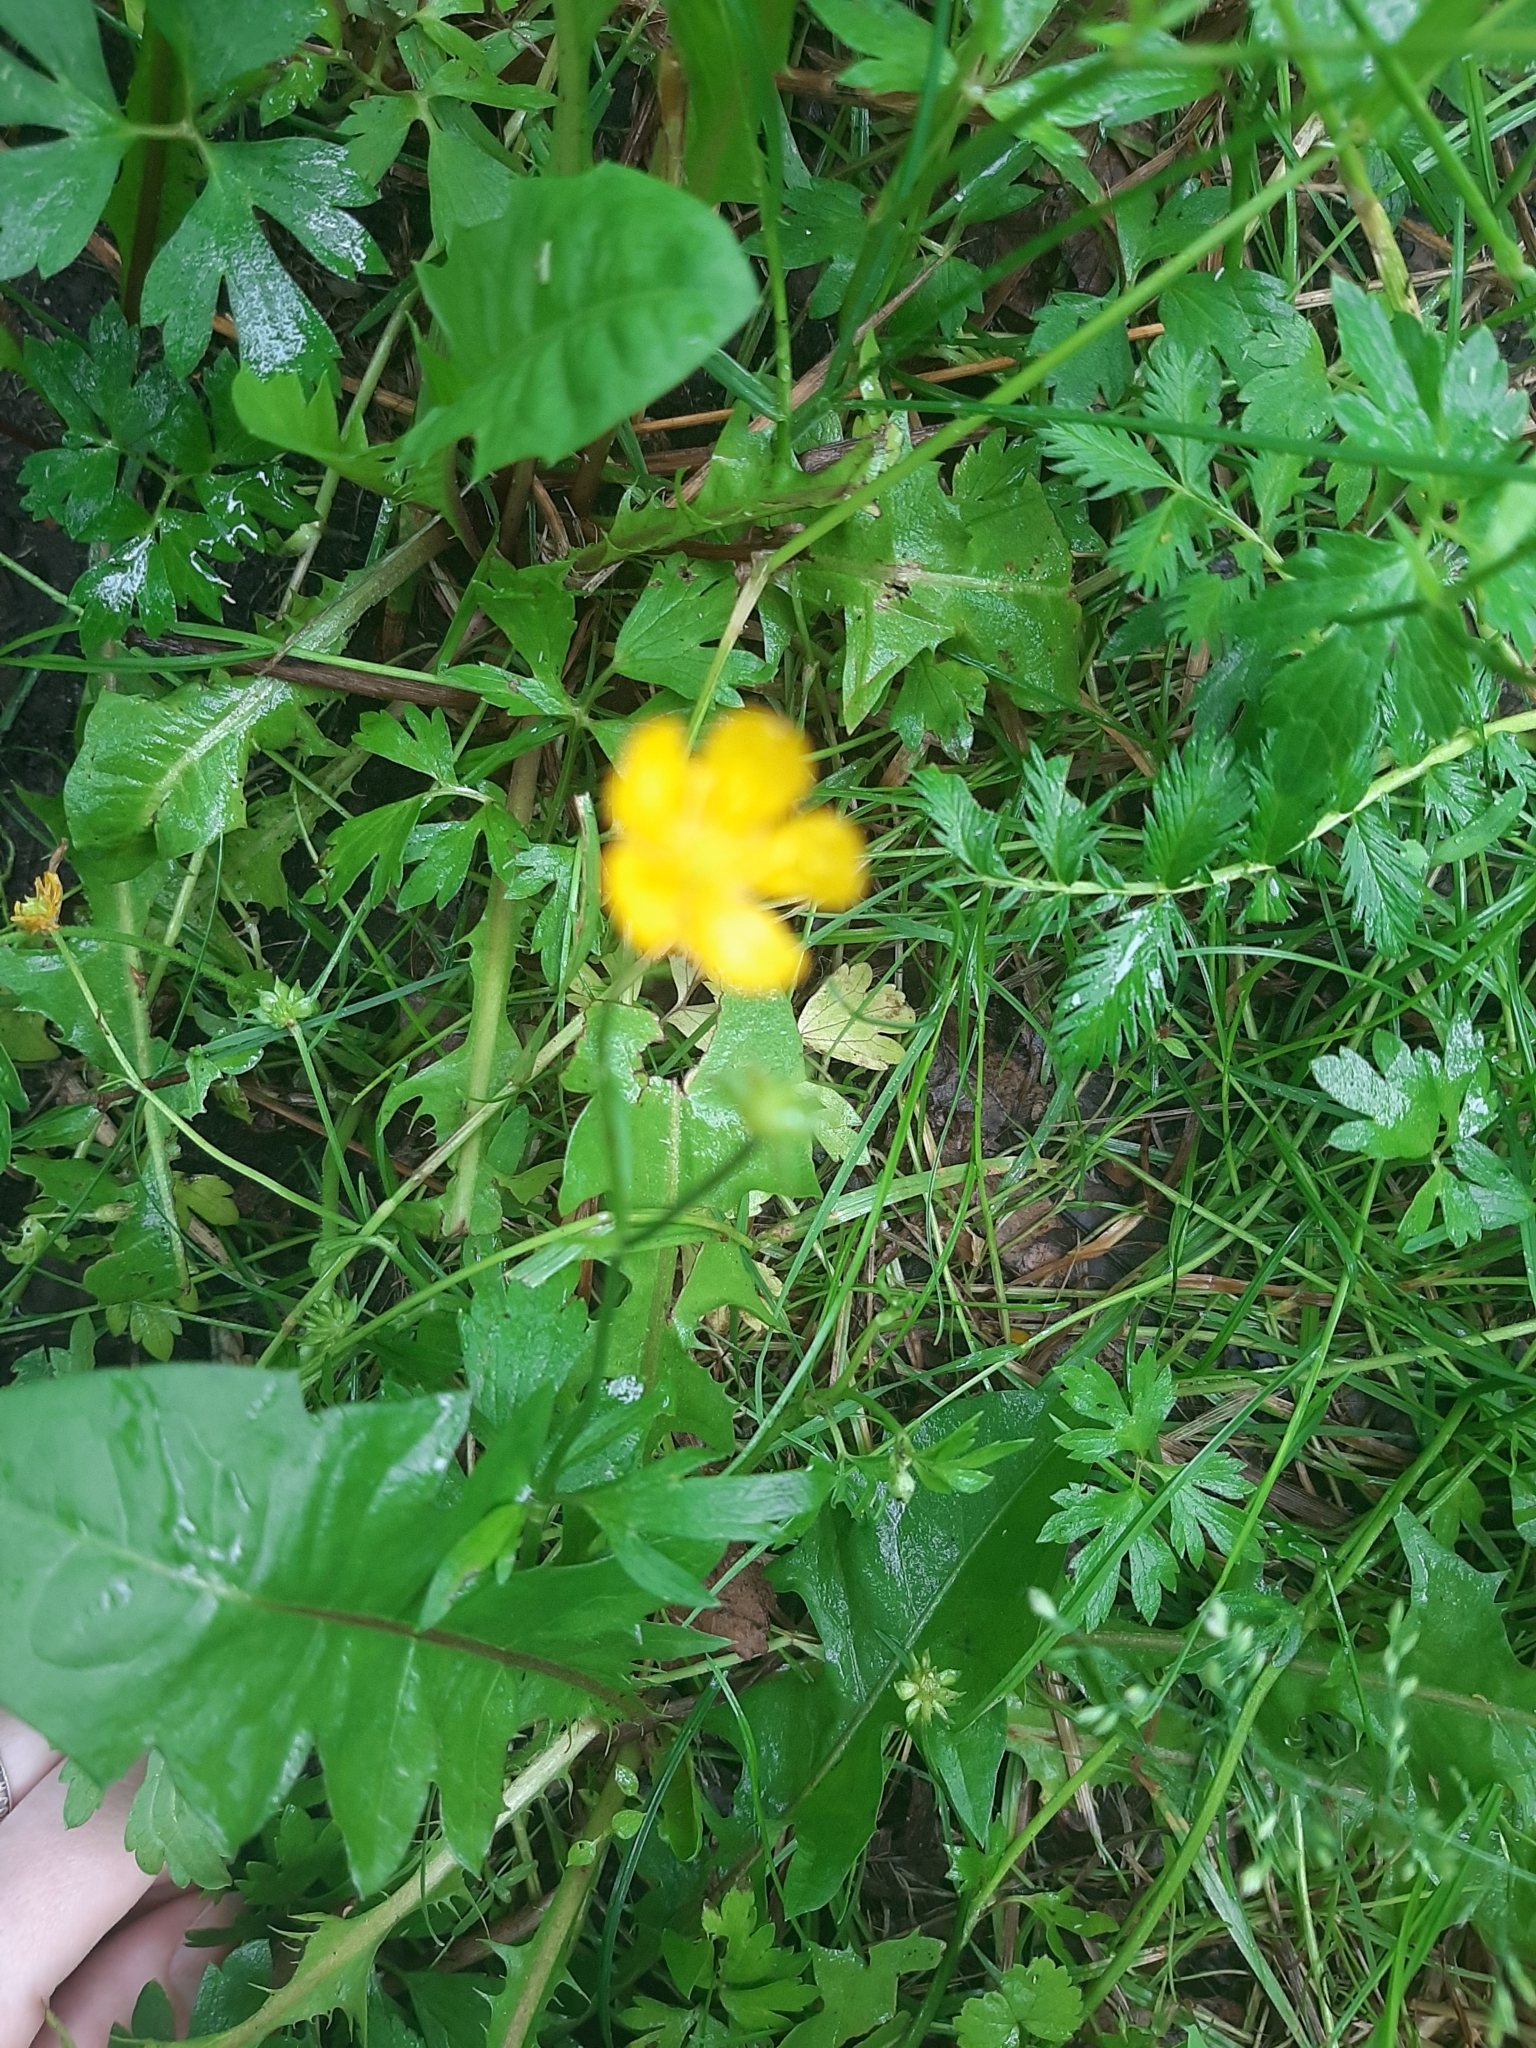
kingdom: Plantae
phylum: Tracheophyta
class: Magnoliopsida
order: Ranunculales
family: Ranunculaceae
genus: Ranunculus
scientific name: Ranunculus repens
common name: Creeping buttercup
